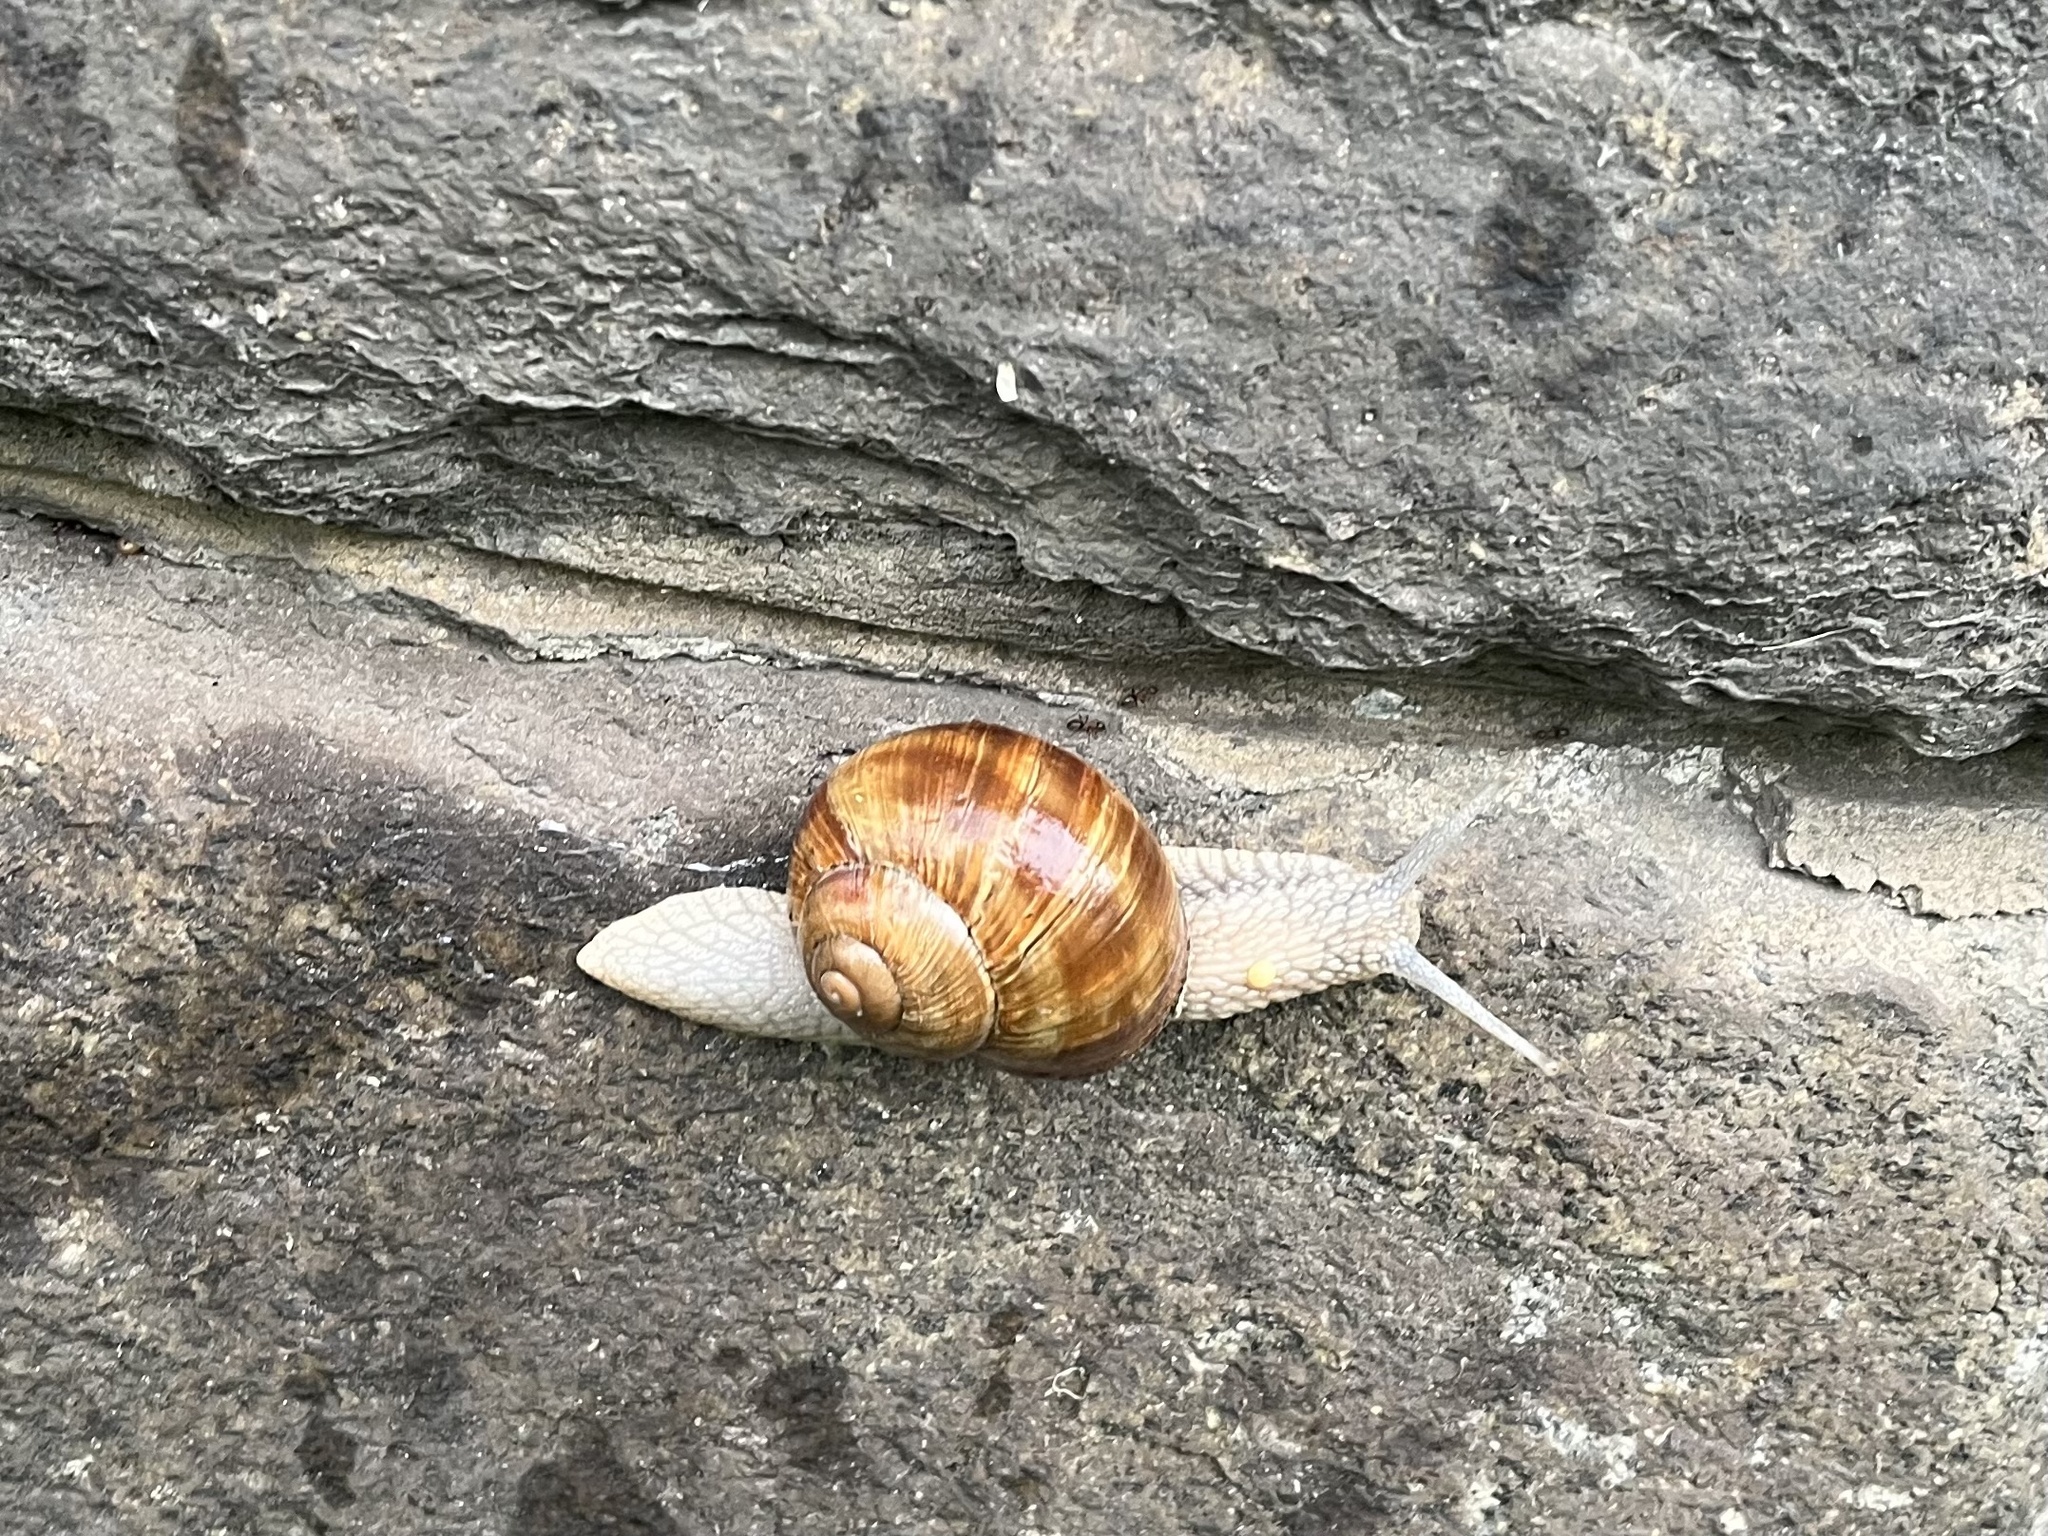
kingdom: Animalia
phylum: Mollusca
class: Gastropoda
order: Stylommatophora
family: Helicidae
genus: Helix
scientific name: Helix pomatia
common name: Roman snail
